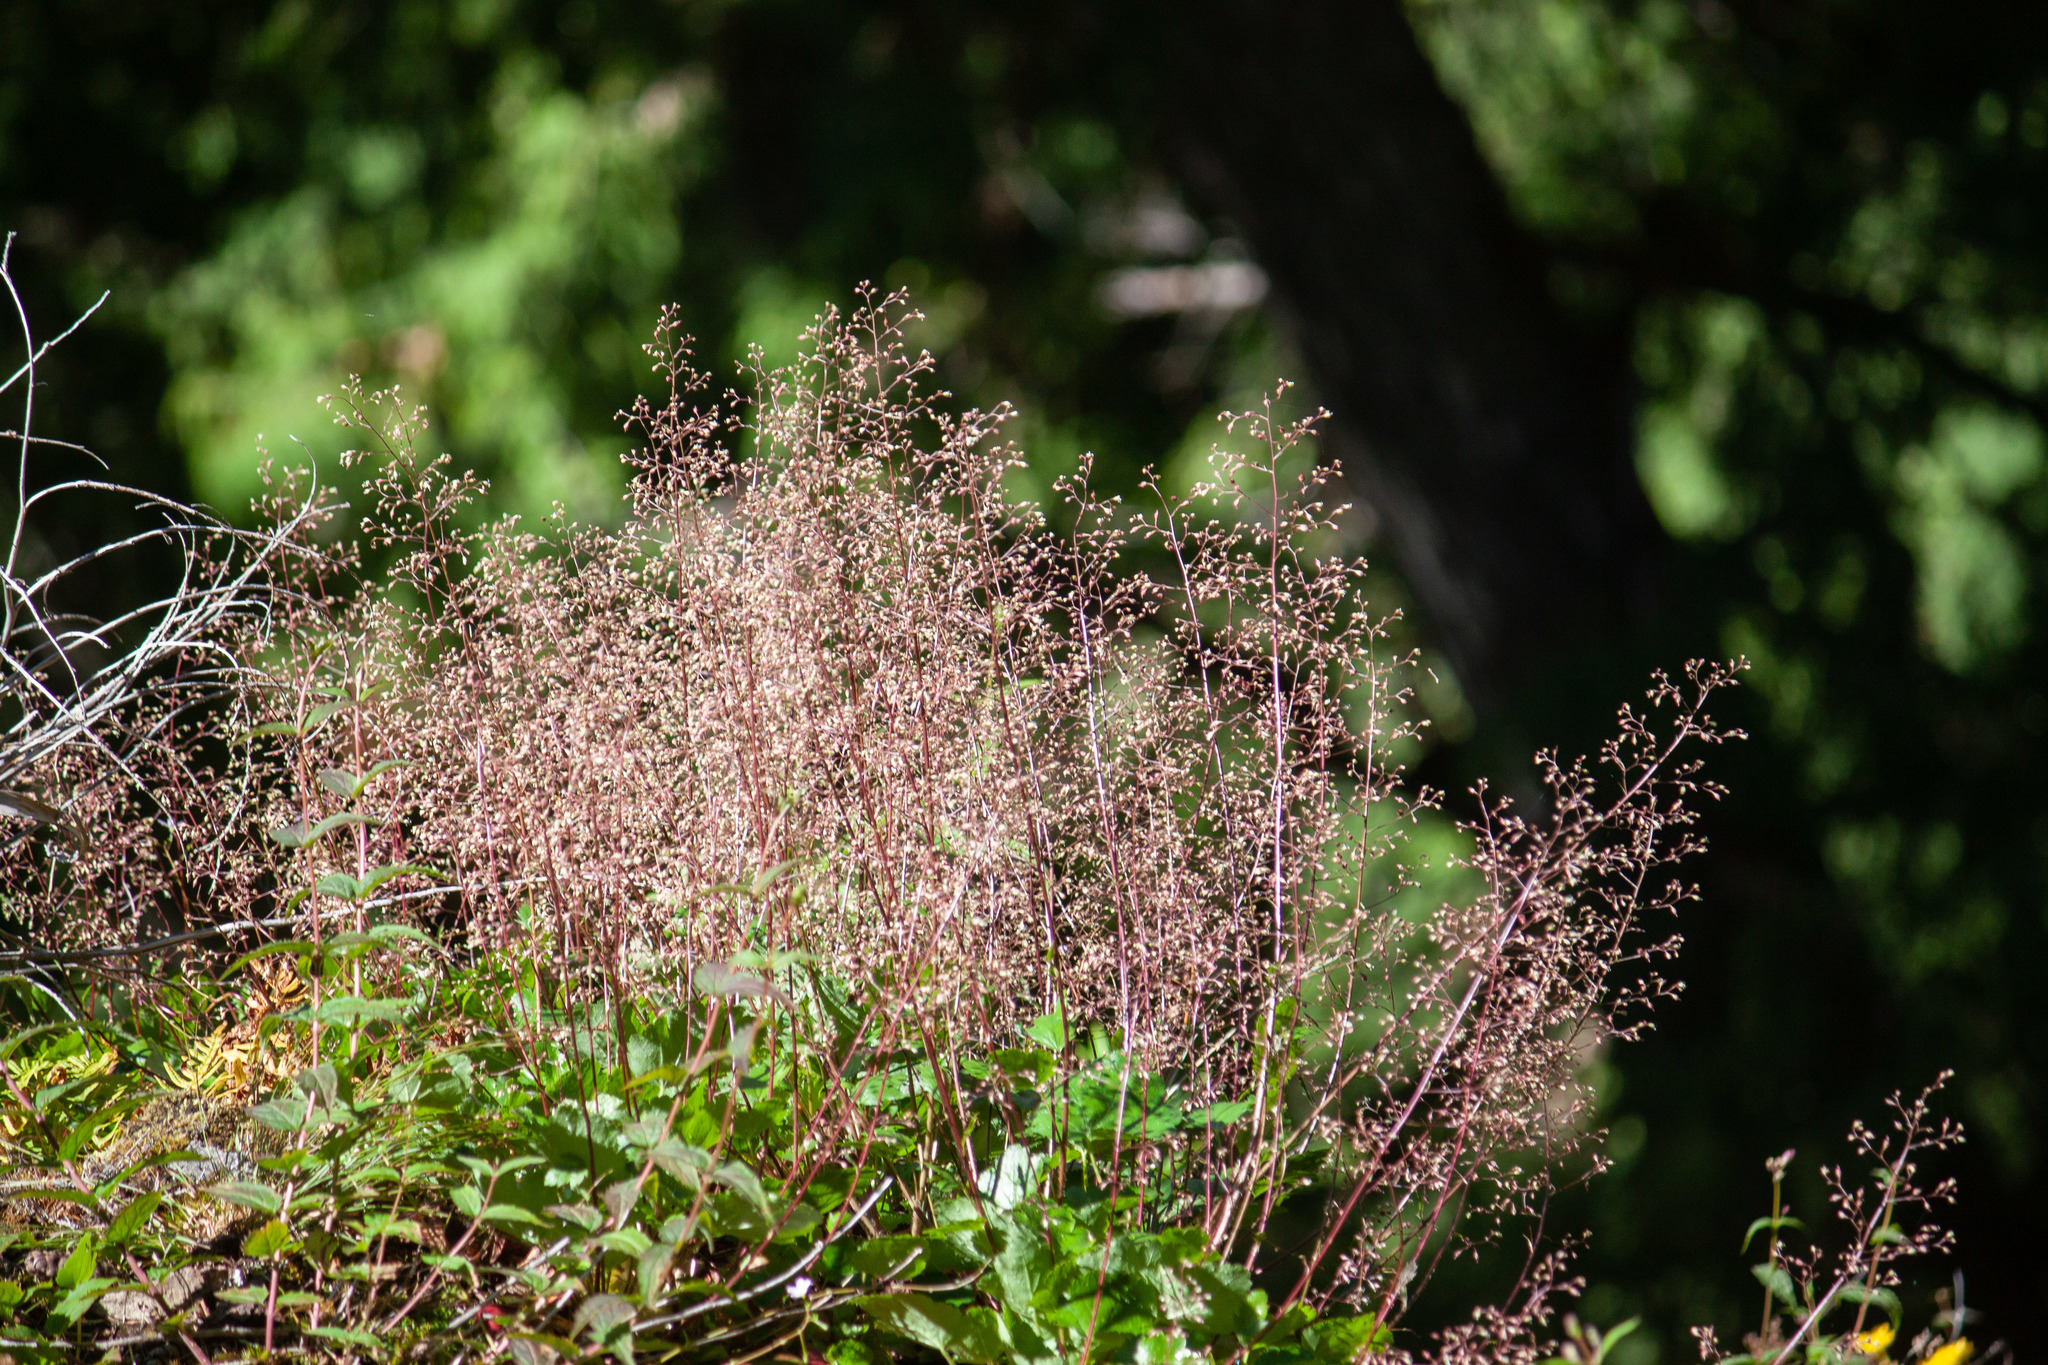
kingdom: Plantae
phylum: Tracheophyta
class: Magnoliopsida
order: Saxifragales
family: Saxifragaceae
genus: Heuchera
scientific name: Heuchera micrantha
